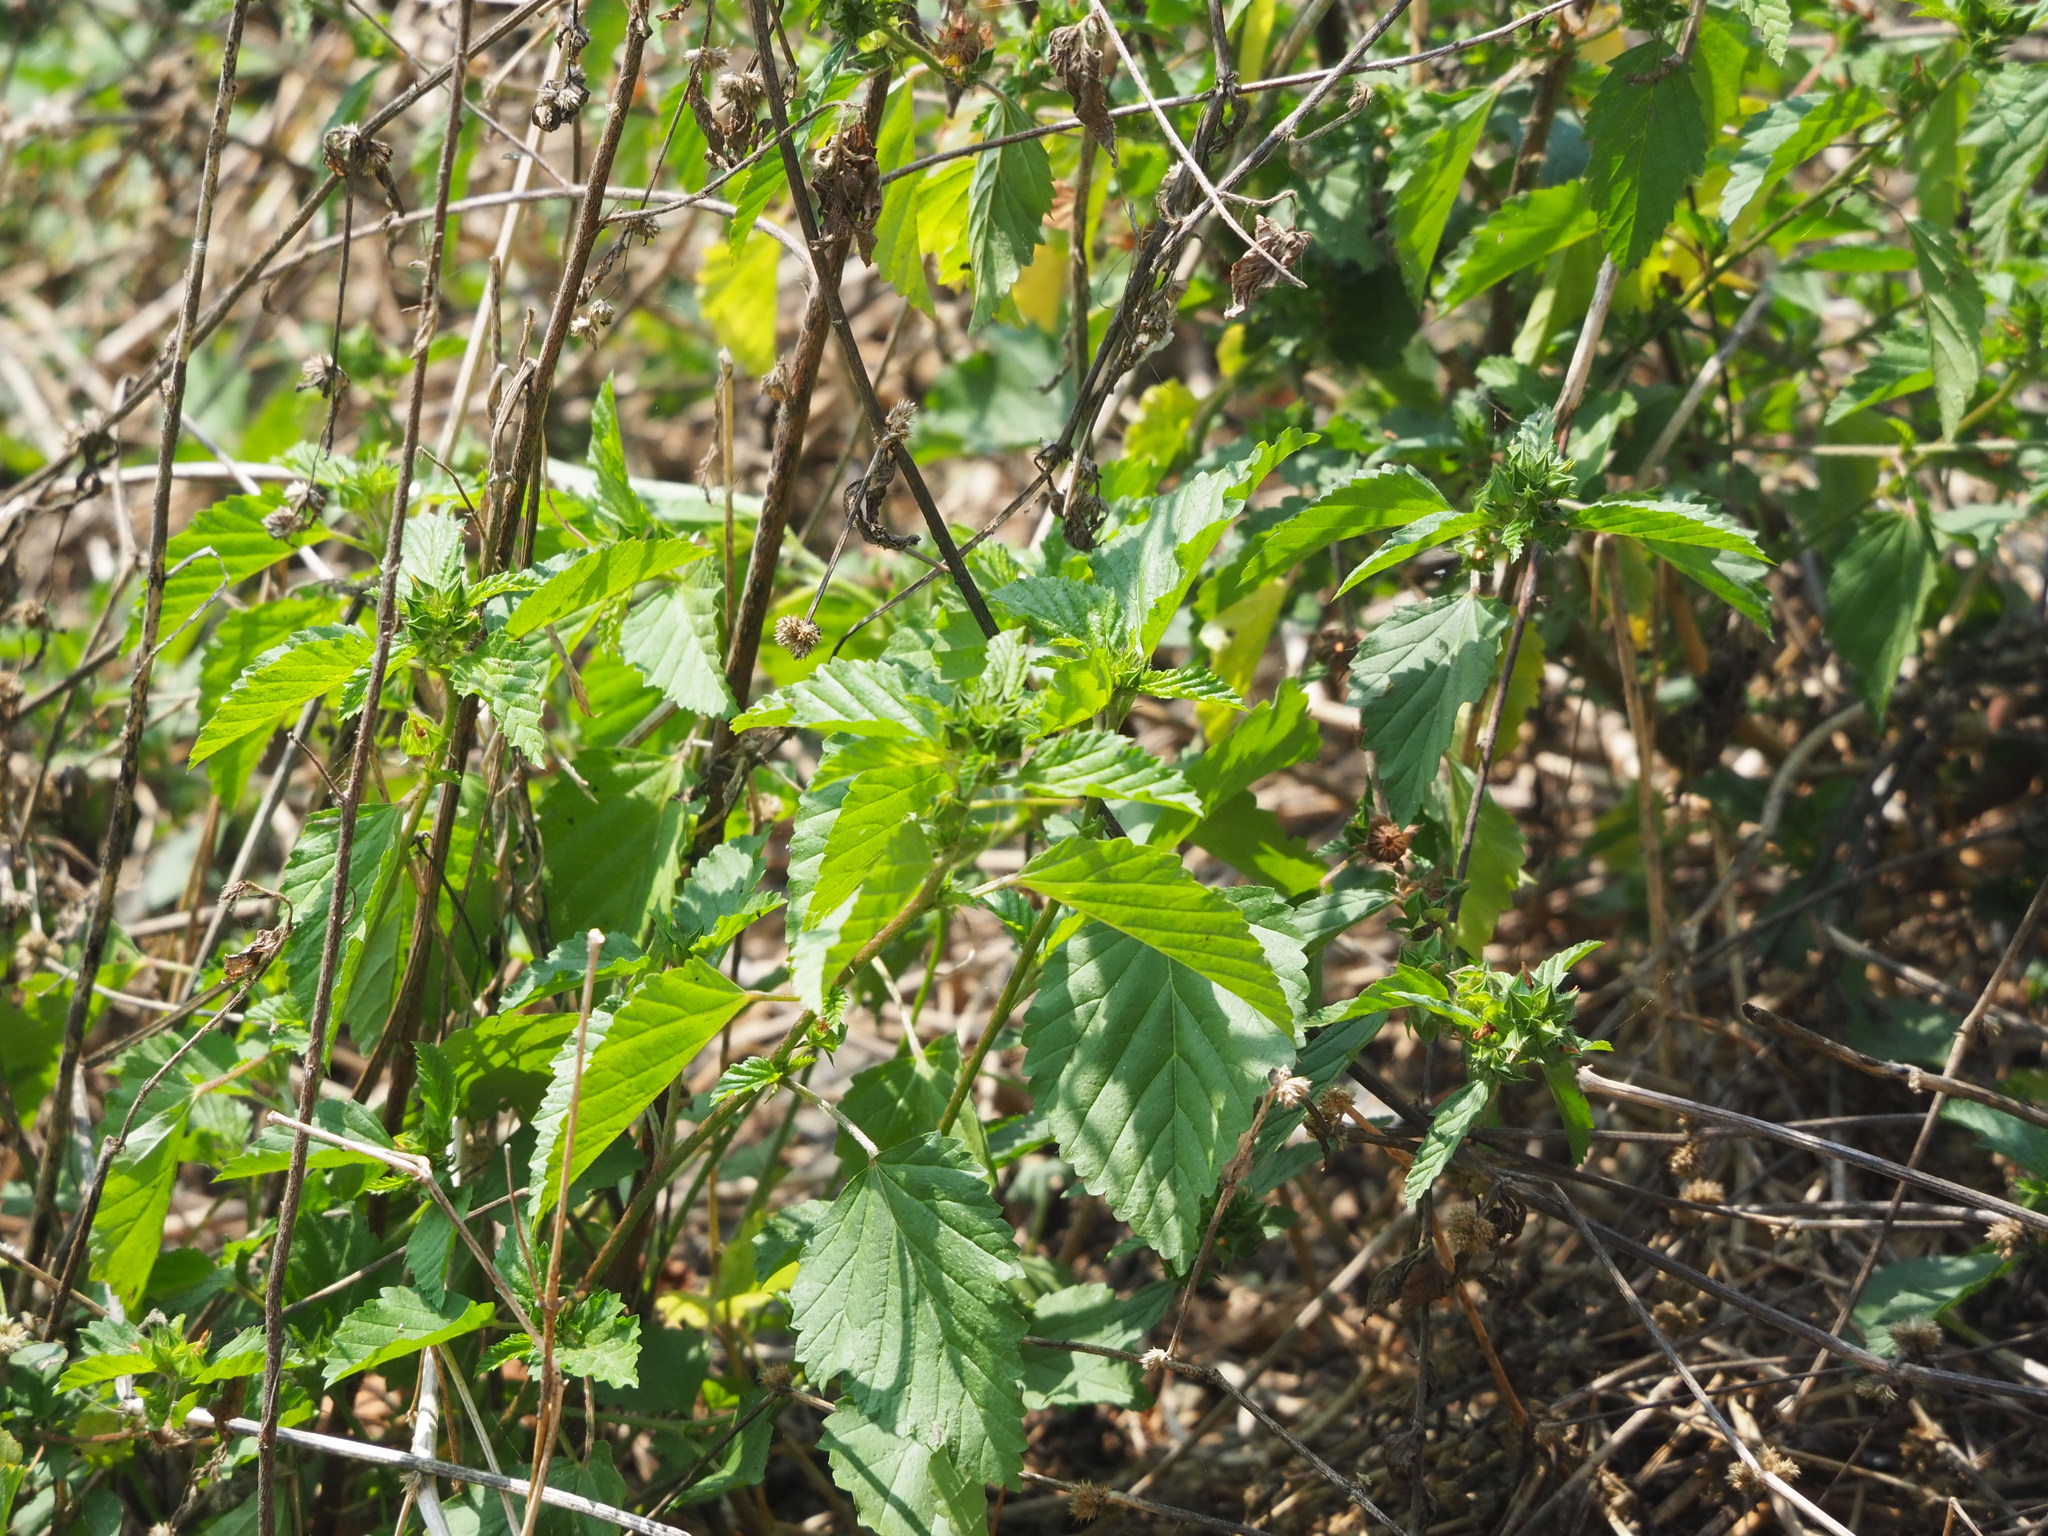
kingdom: Plantae
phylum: Tracheophyta
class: Magnoliopsida
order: Malvales
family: Malvaceae
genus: Malvastrum
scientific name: Malvastrum coromandelianum
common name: Threelobe false mallow
